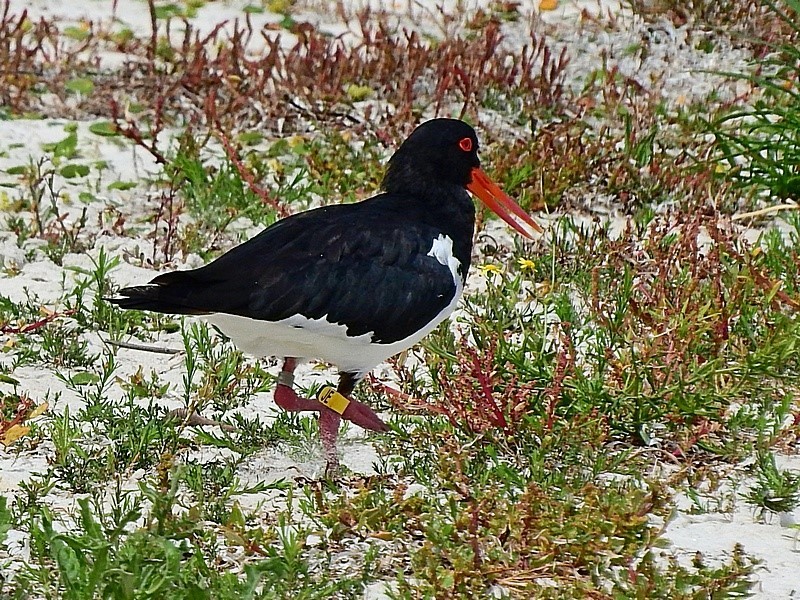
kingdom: Animalia
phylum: Chordata
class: Aves
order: Charadriiformes
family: Haematopodidae
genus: Haematopus
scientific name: Haematopus longirostris
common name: Pied oystercatcher
